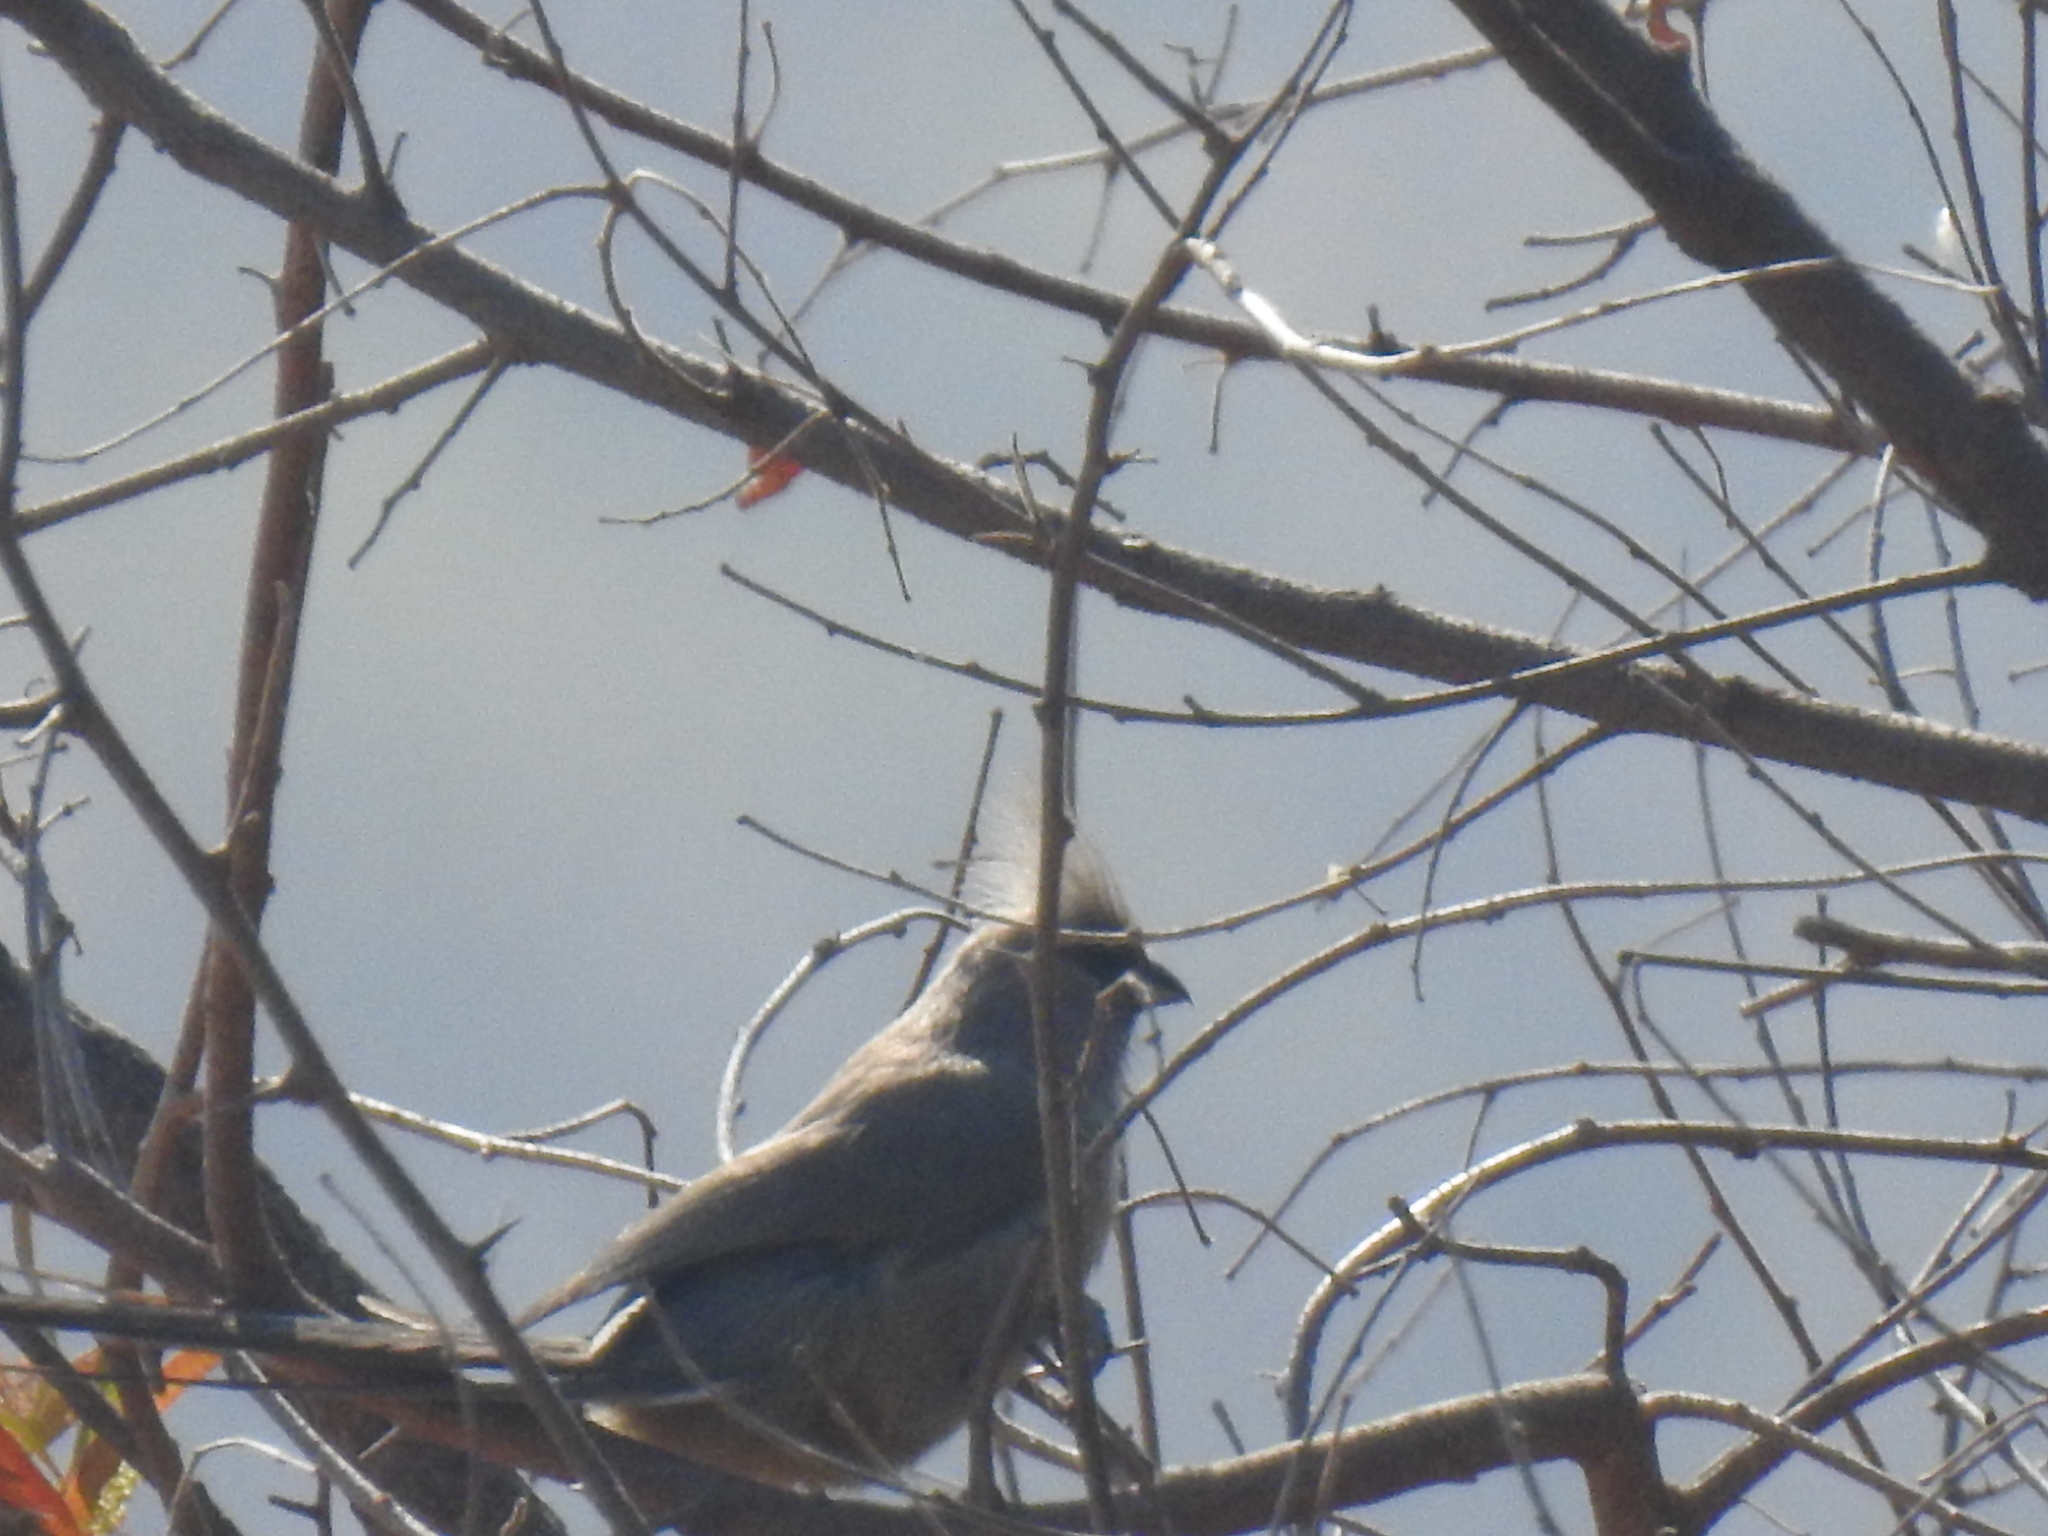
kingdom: Animalia
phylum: Chordata
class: Aves
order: Coliiformes
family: Coliidae
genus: Colius
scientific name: Colius striatus
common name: Speckled mousebird
